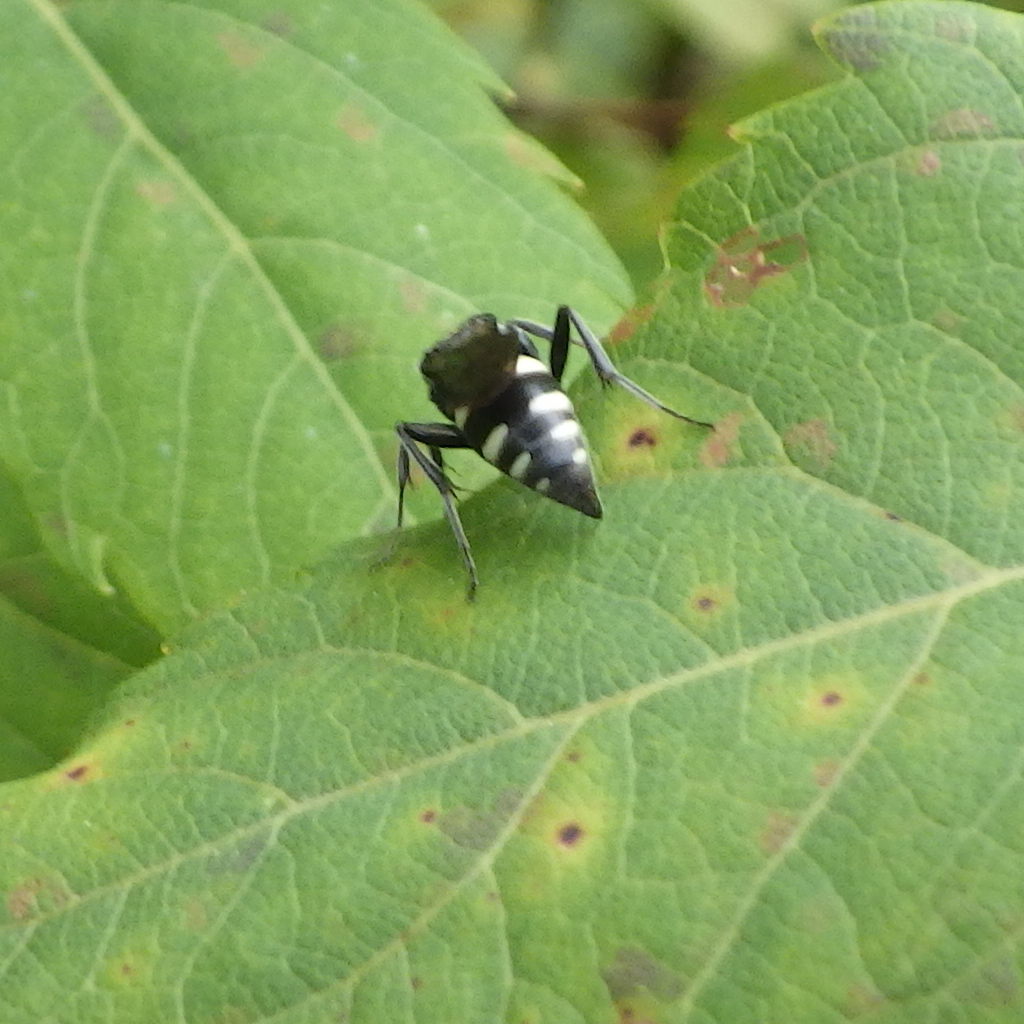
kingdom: Animalia
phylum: Arthropoda
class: Insecta
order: Hymenoptera
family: Crabronidae
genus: Nysson
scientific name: Nysson
